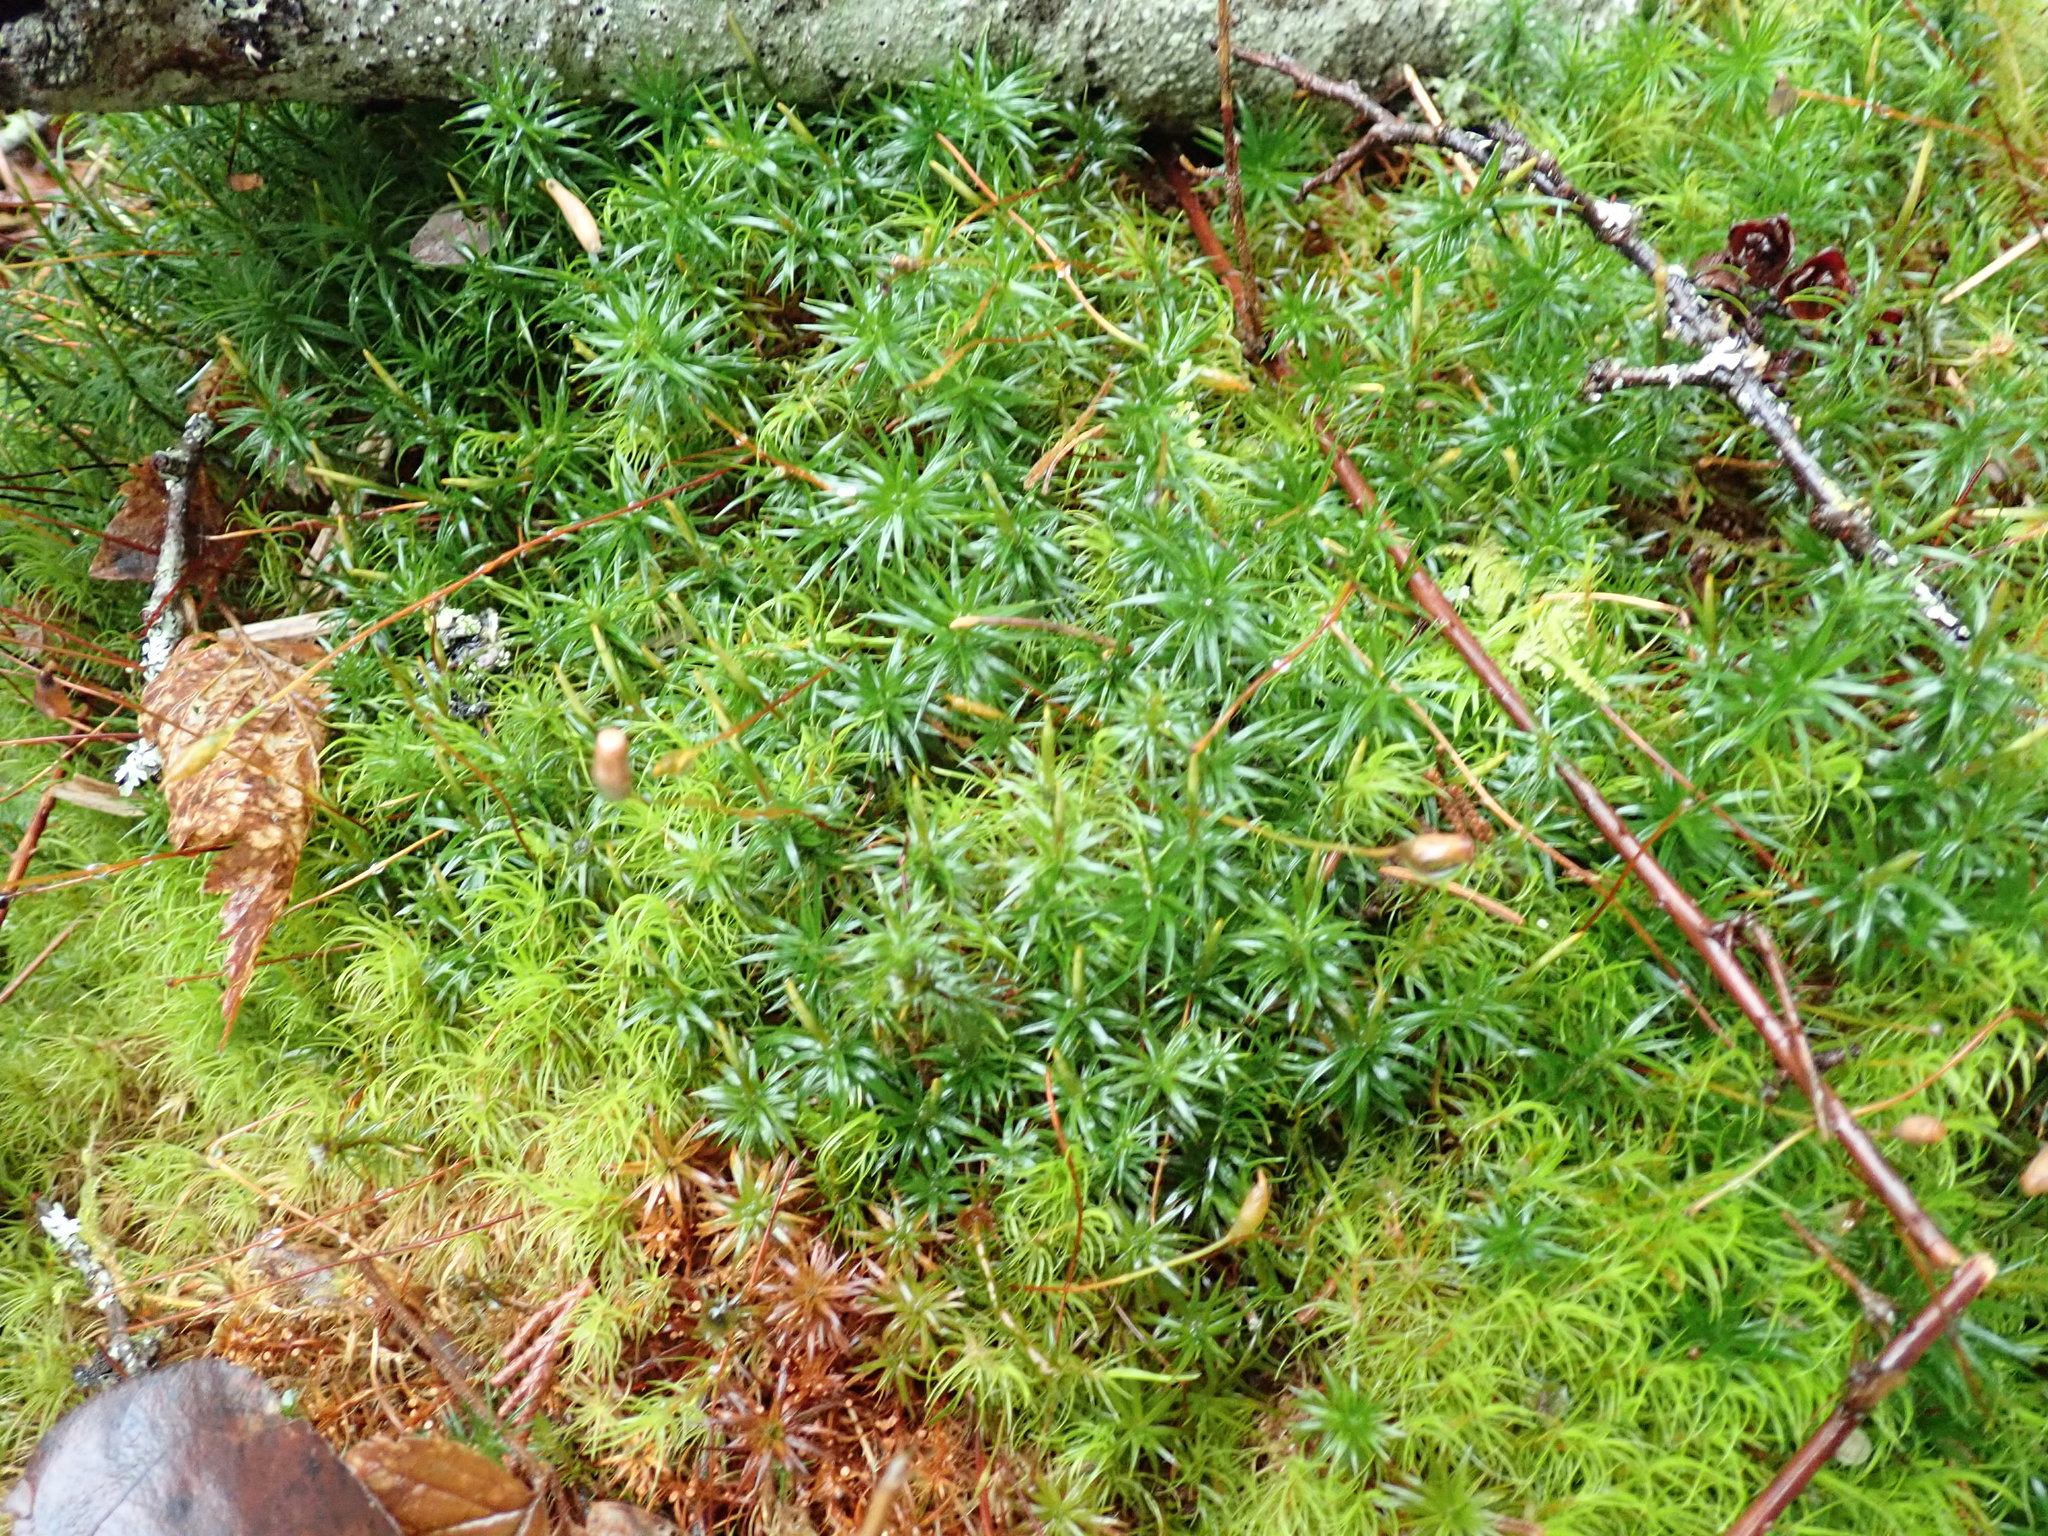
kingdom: Plantae
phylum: Bryophyta
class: Polytrichopsida
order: Polytrichales
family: Polytrichaceae
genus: Polytrichastrum
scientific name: Polytrichastrum alpinum
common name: Alpine haircap
